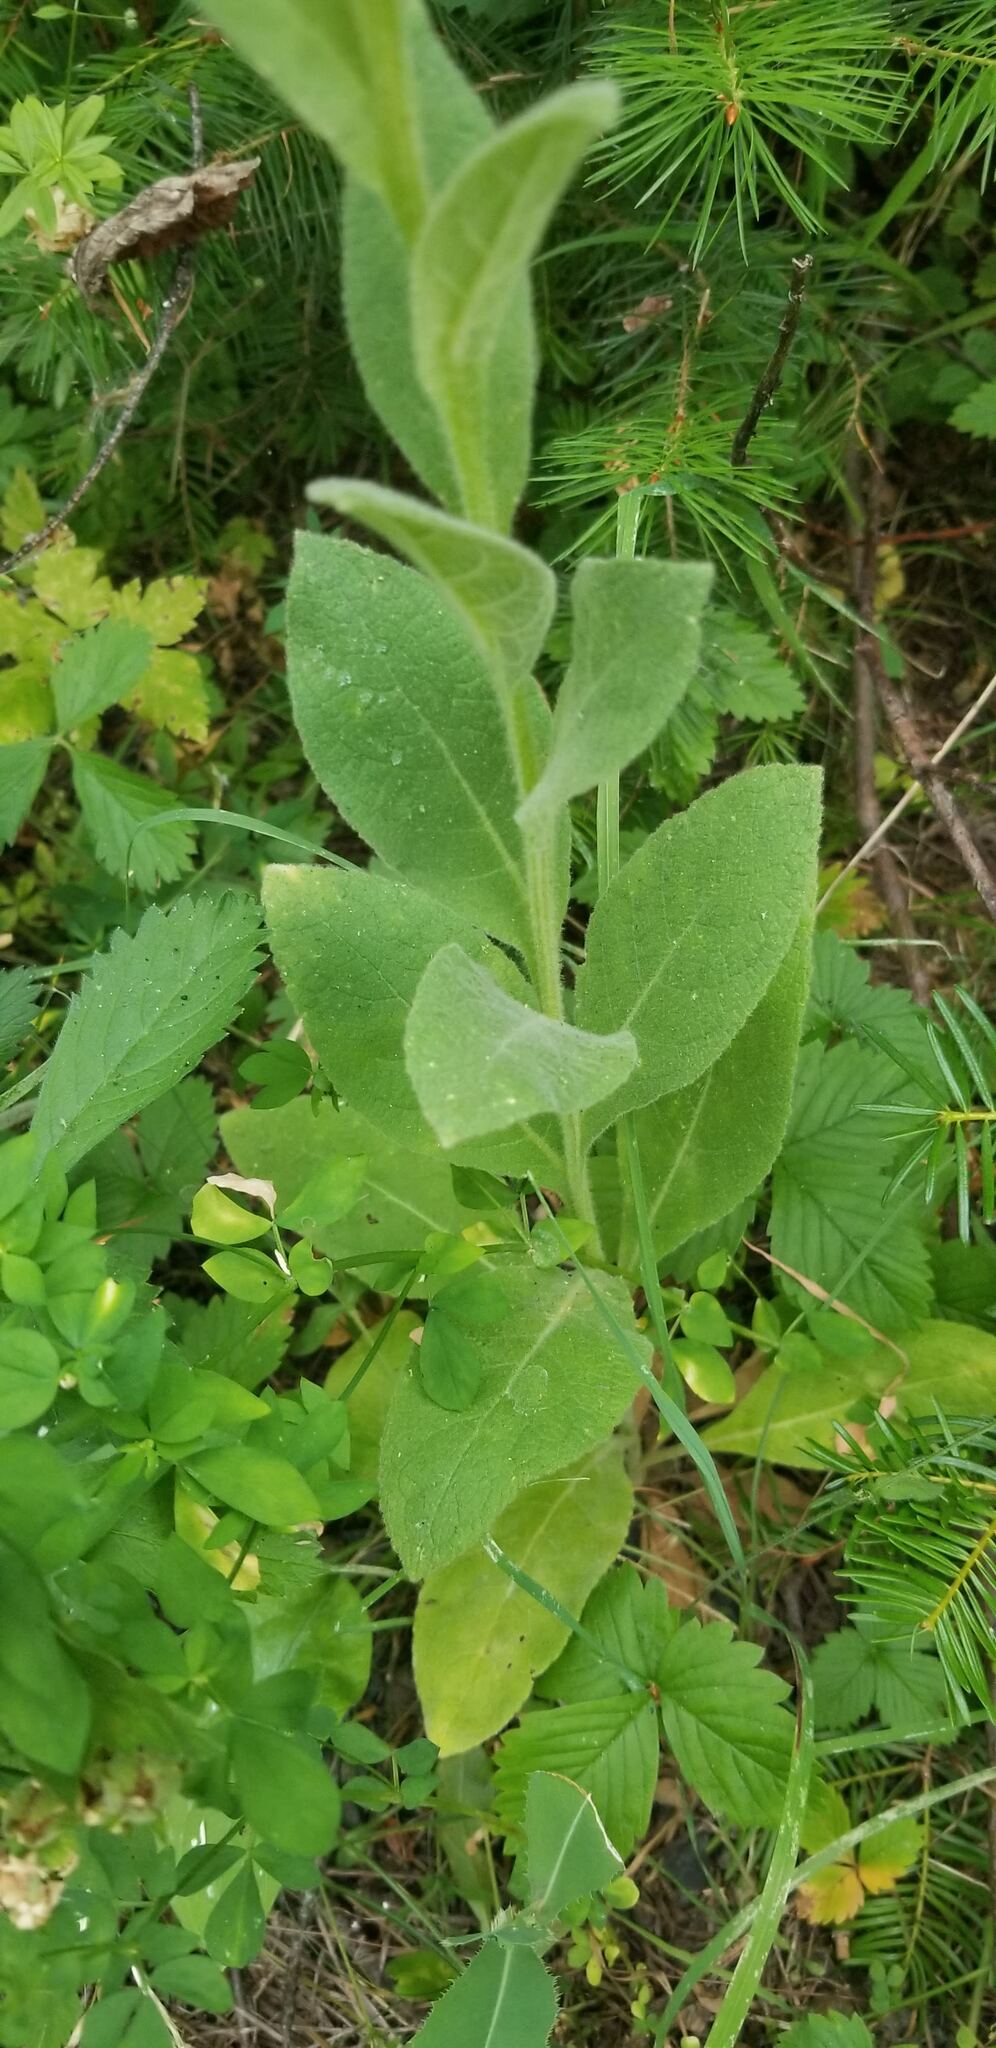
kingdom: Plantae
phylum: Tracheophyta
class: Magnoliopsida
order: Lamiales
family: Scrophulariaceae
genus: Verbascum
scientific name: Verbascum thapsus
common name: Common mullein
